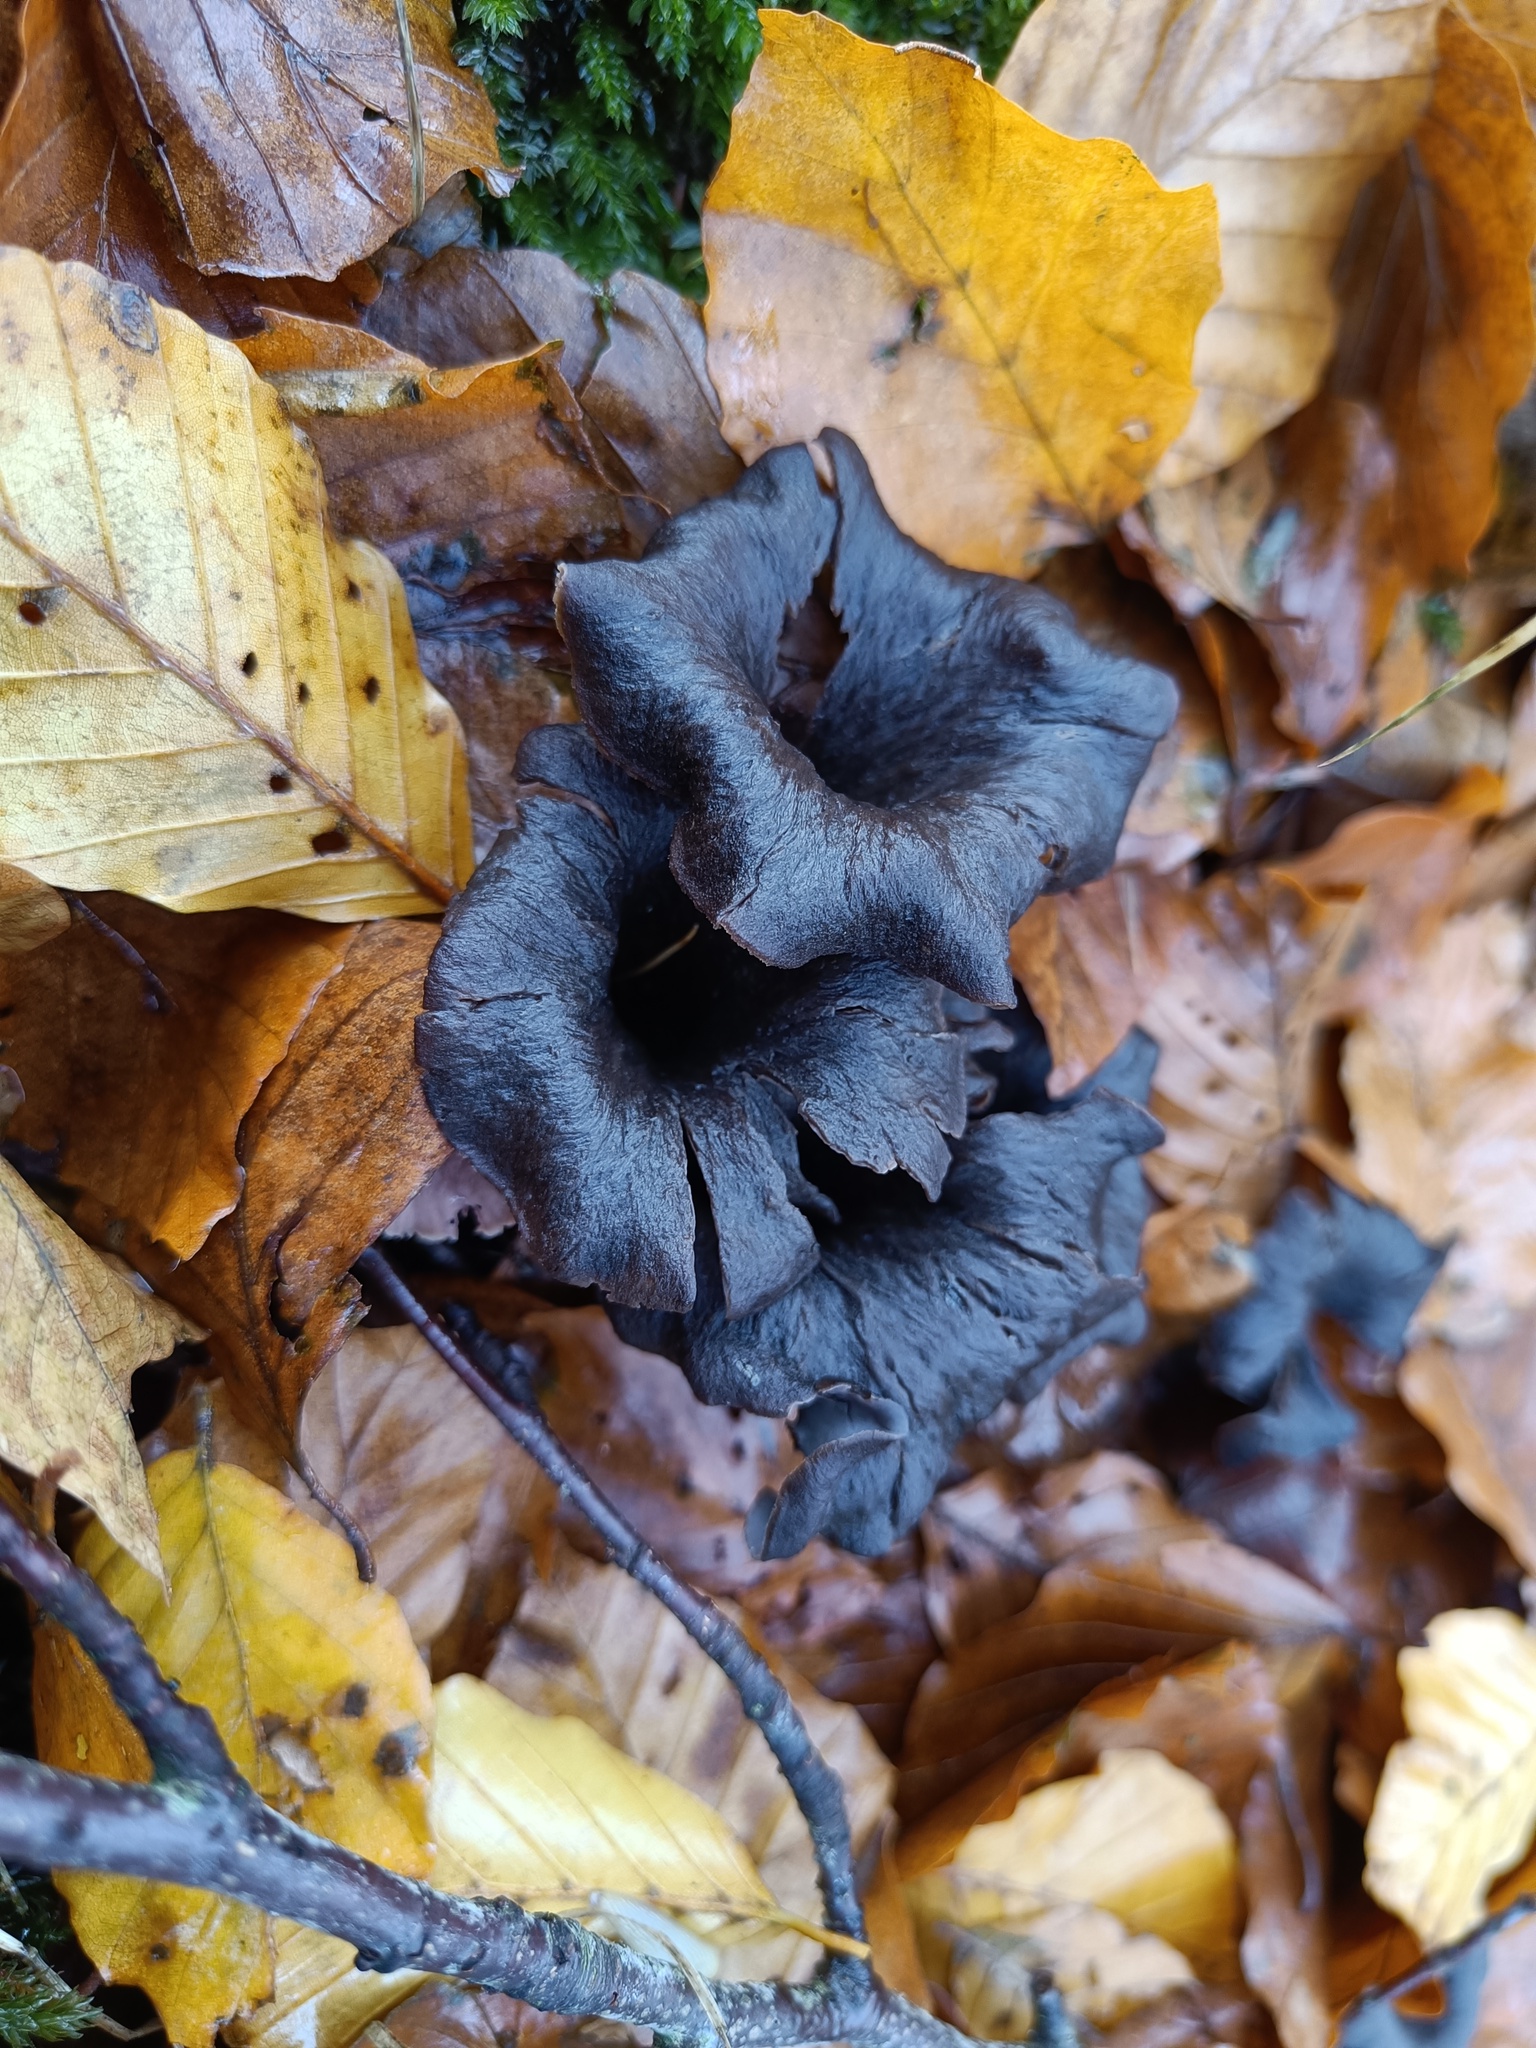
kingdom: Fungi
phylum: Basidiomycota
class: Agaricomycetes
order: Cantharellales
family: Hydnaceae
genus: Craterellus
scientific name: Craterellus cornucopioides
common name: Horn of plenty
